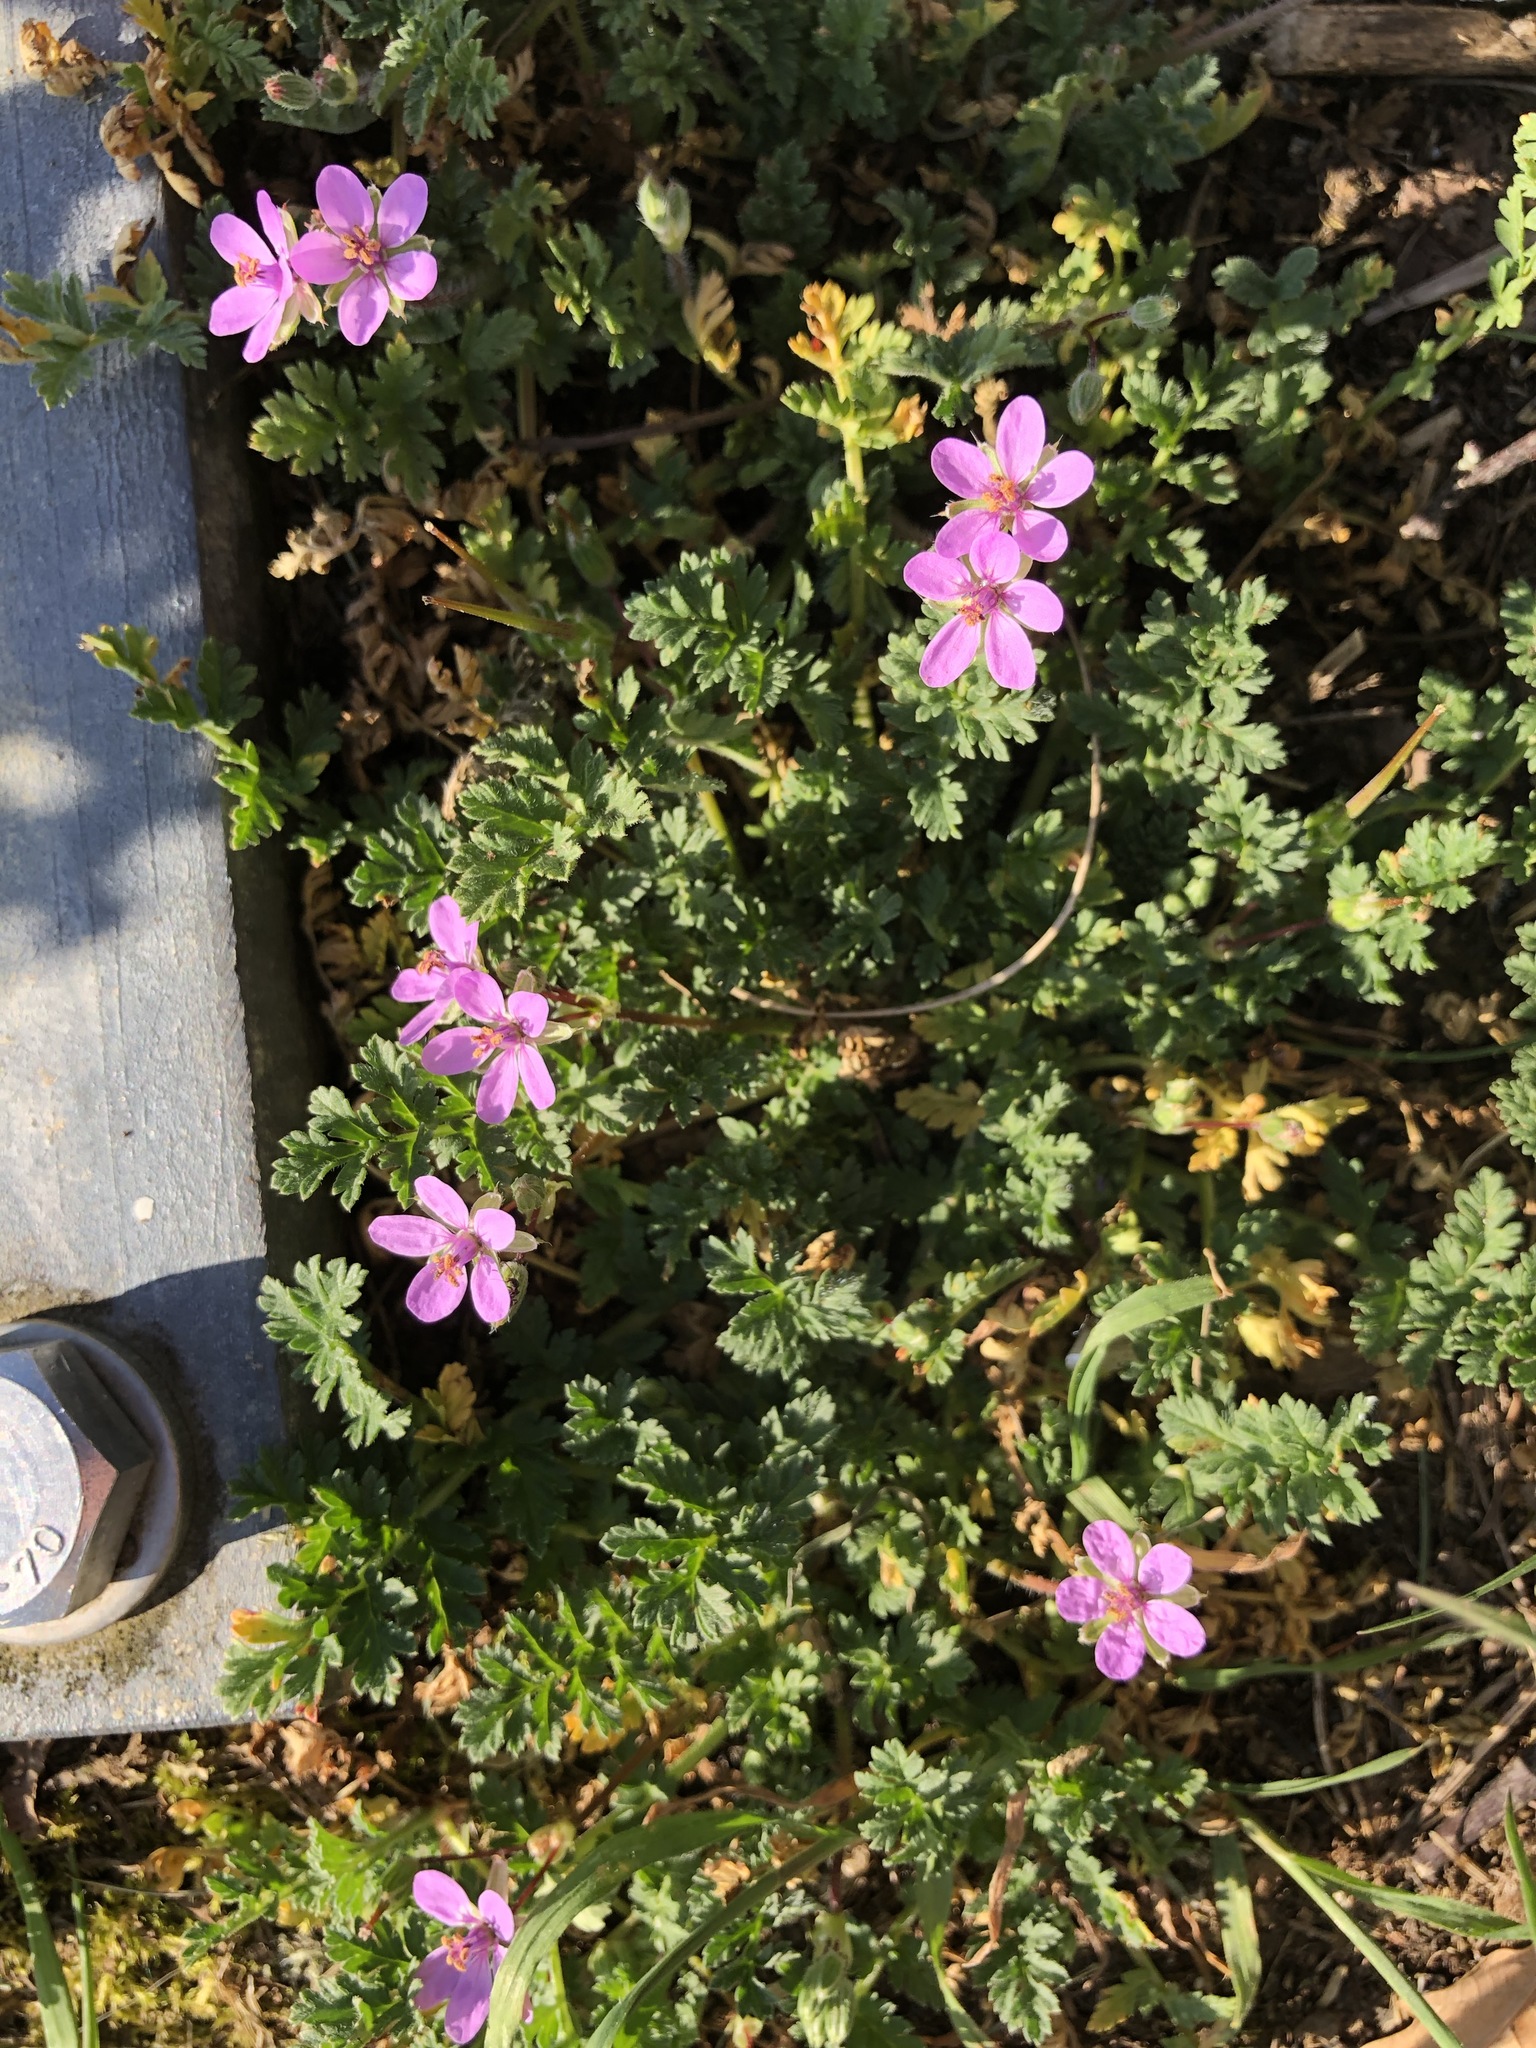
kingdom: Plantae
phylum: Tracheophyta
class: Magnoliopsida
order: Geraniales
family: Geraniaceae
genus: Erodium
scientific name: Erodium cicutarium
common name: Common stork's-bill
